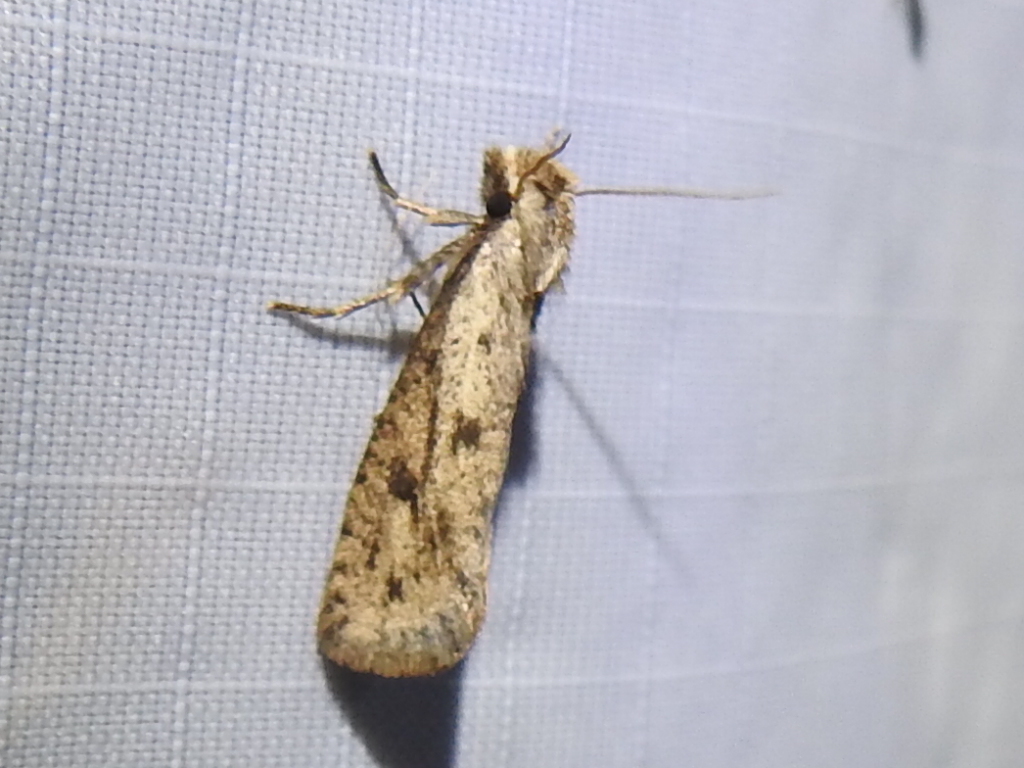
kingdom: Animalia
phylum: Arthropoda
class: Insecta
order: Lepidoptera
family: Tineidae
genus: Acrolophus
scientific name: Acrolophus mortipennella
